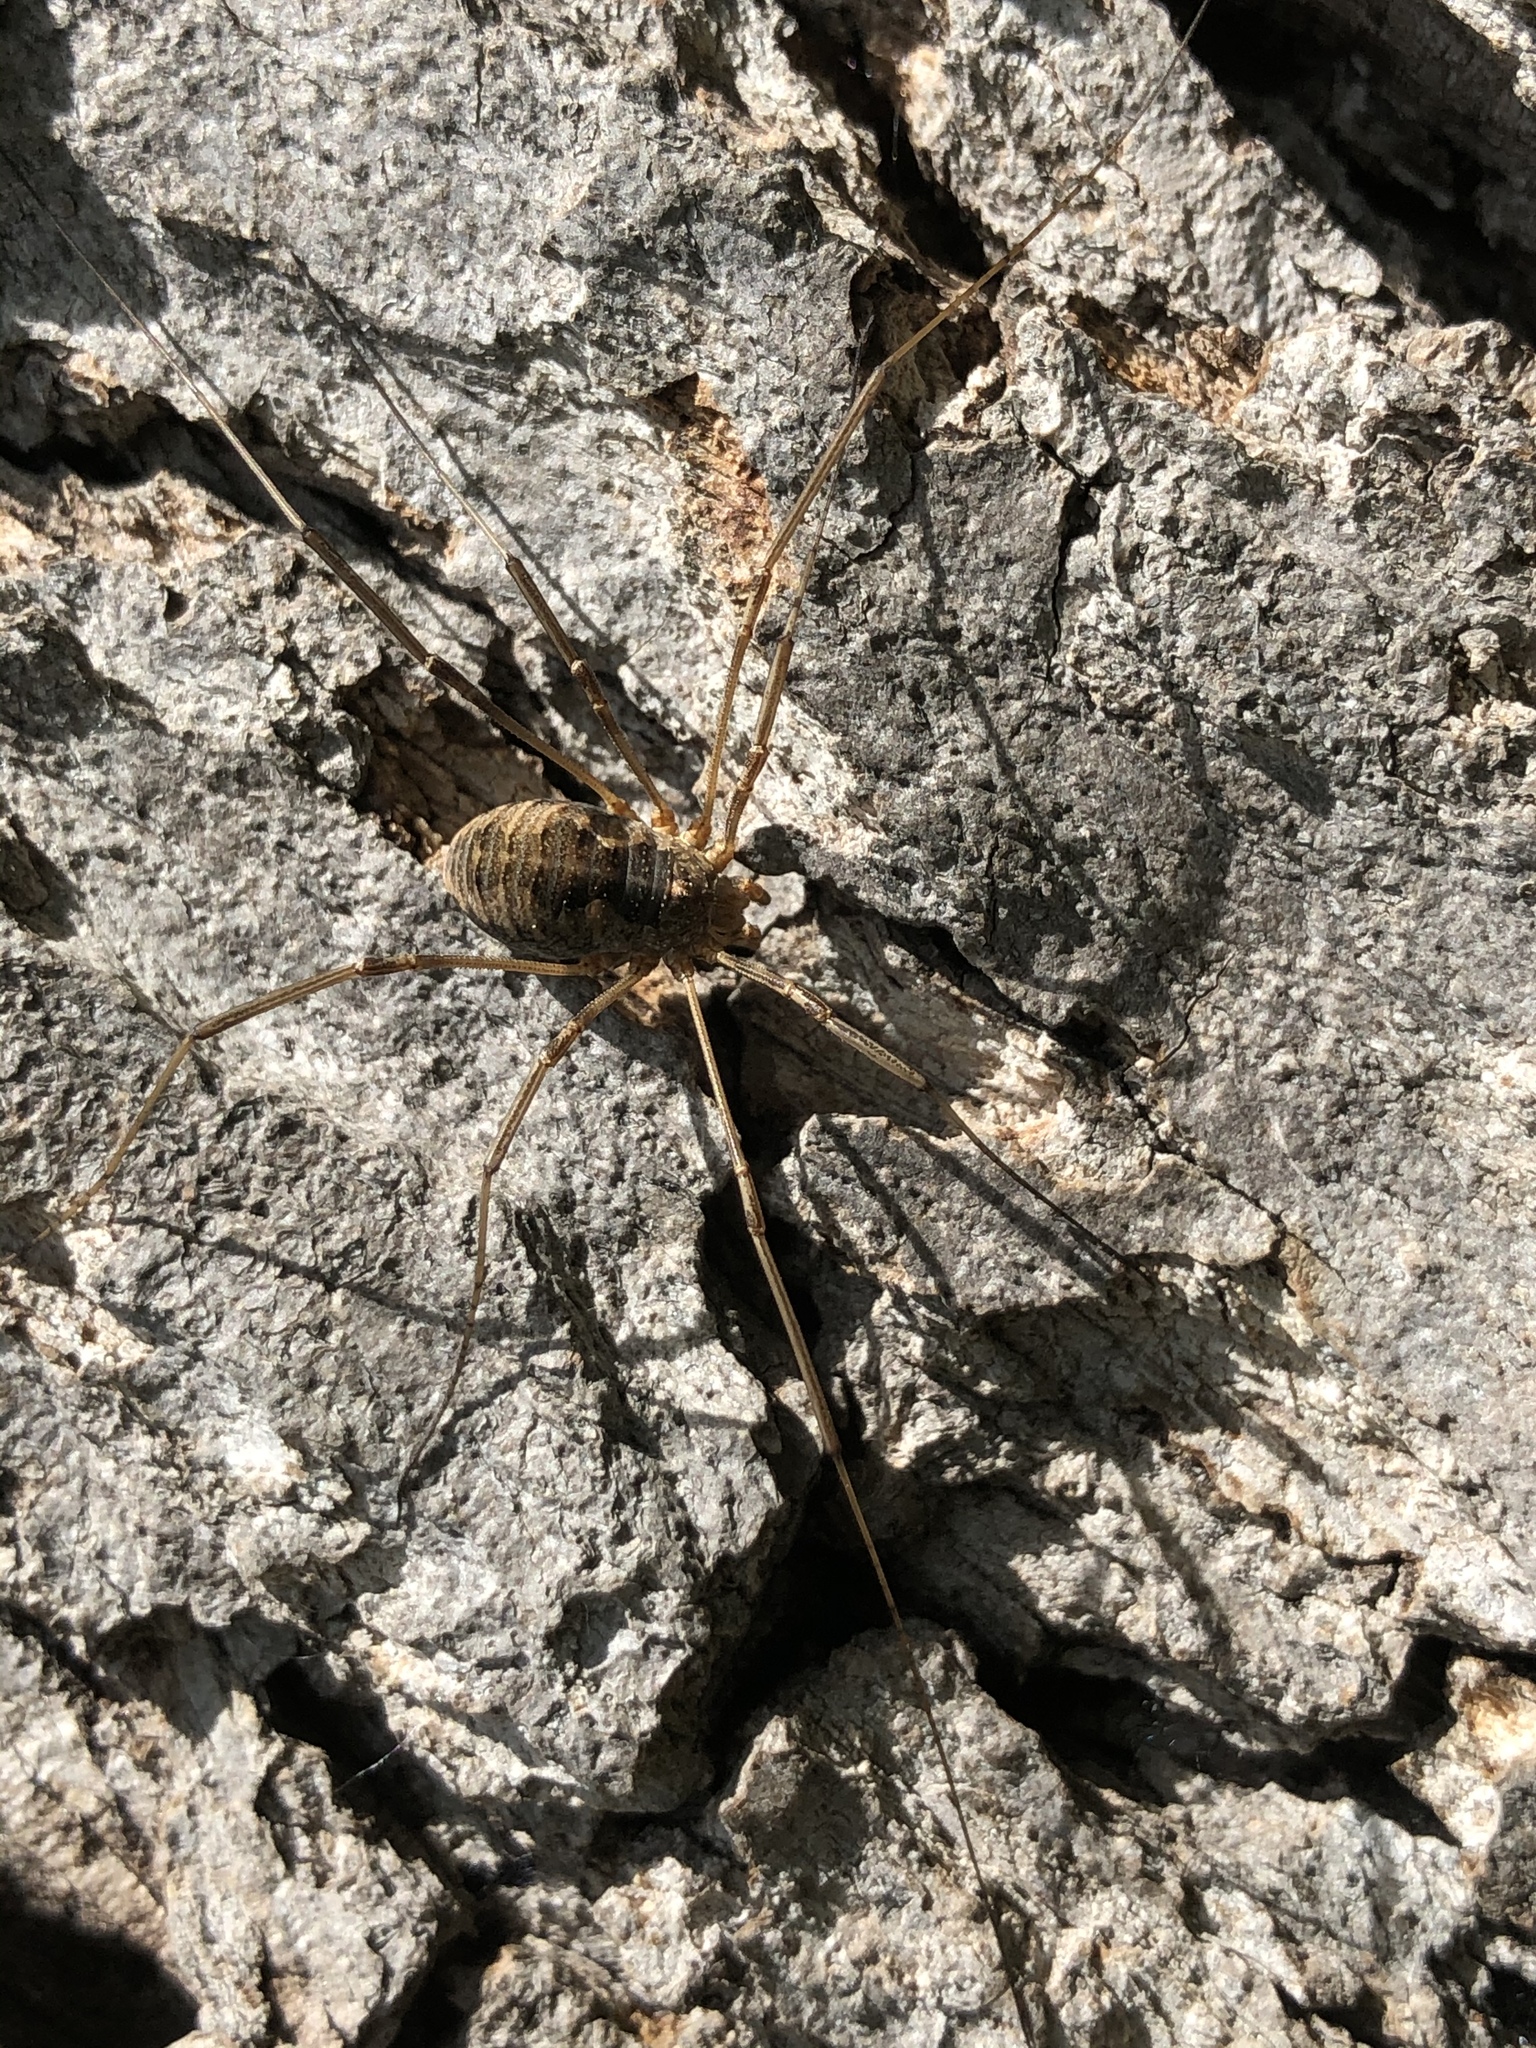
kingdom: Animalia
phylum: Arthropoda
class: Arachnida
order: Opiliones
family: Phalangiidae
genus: Phalangium
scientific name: Phalangium opilio
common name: Daddy longleg
